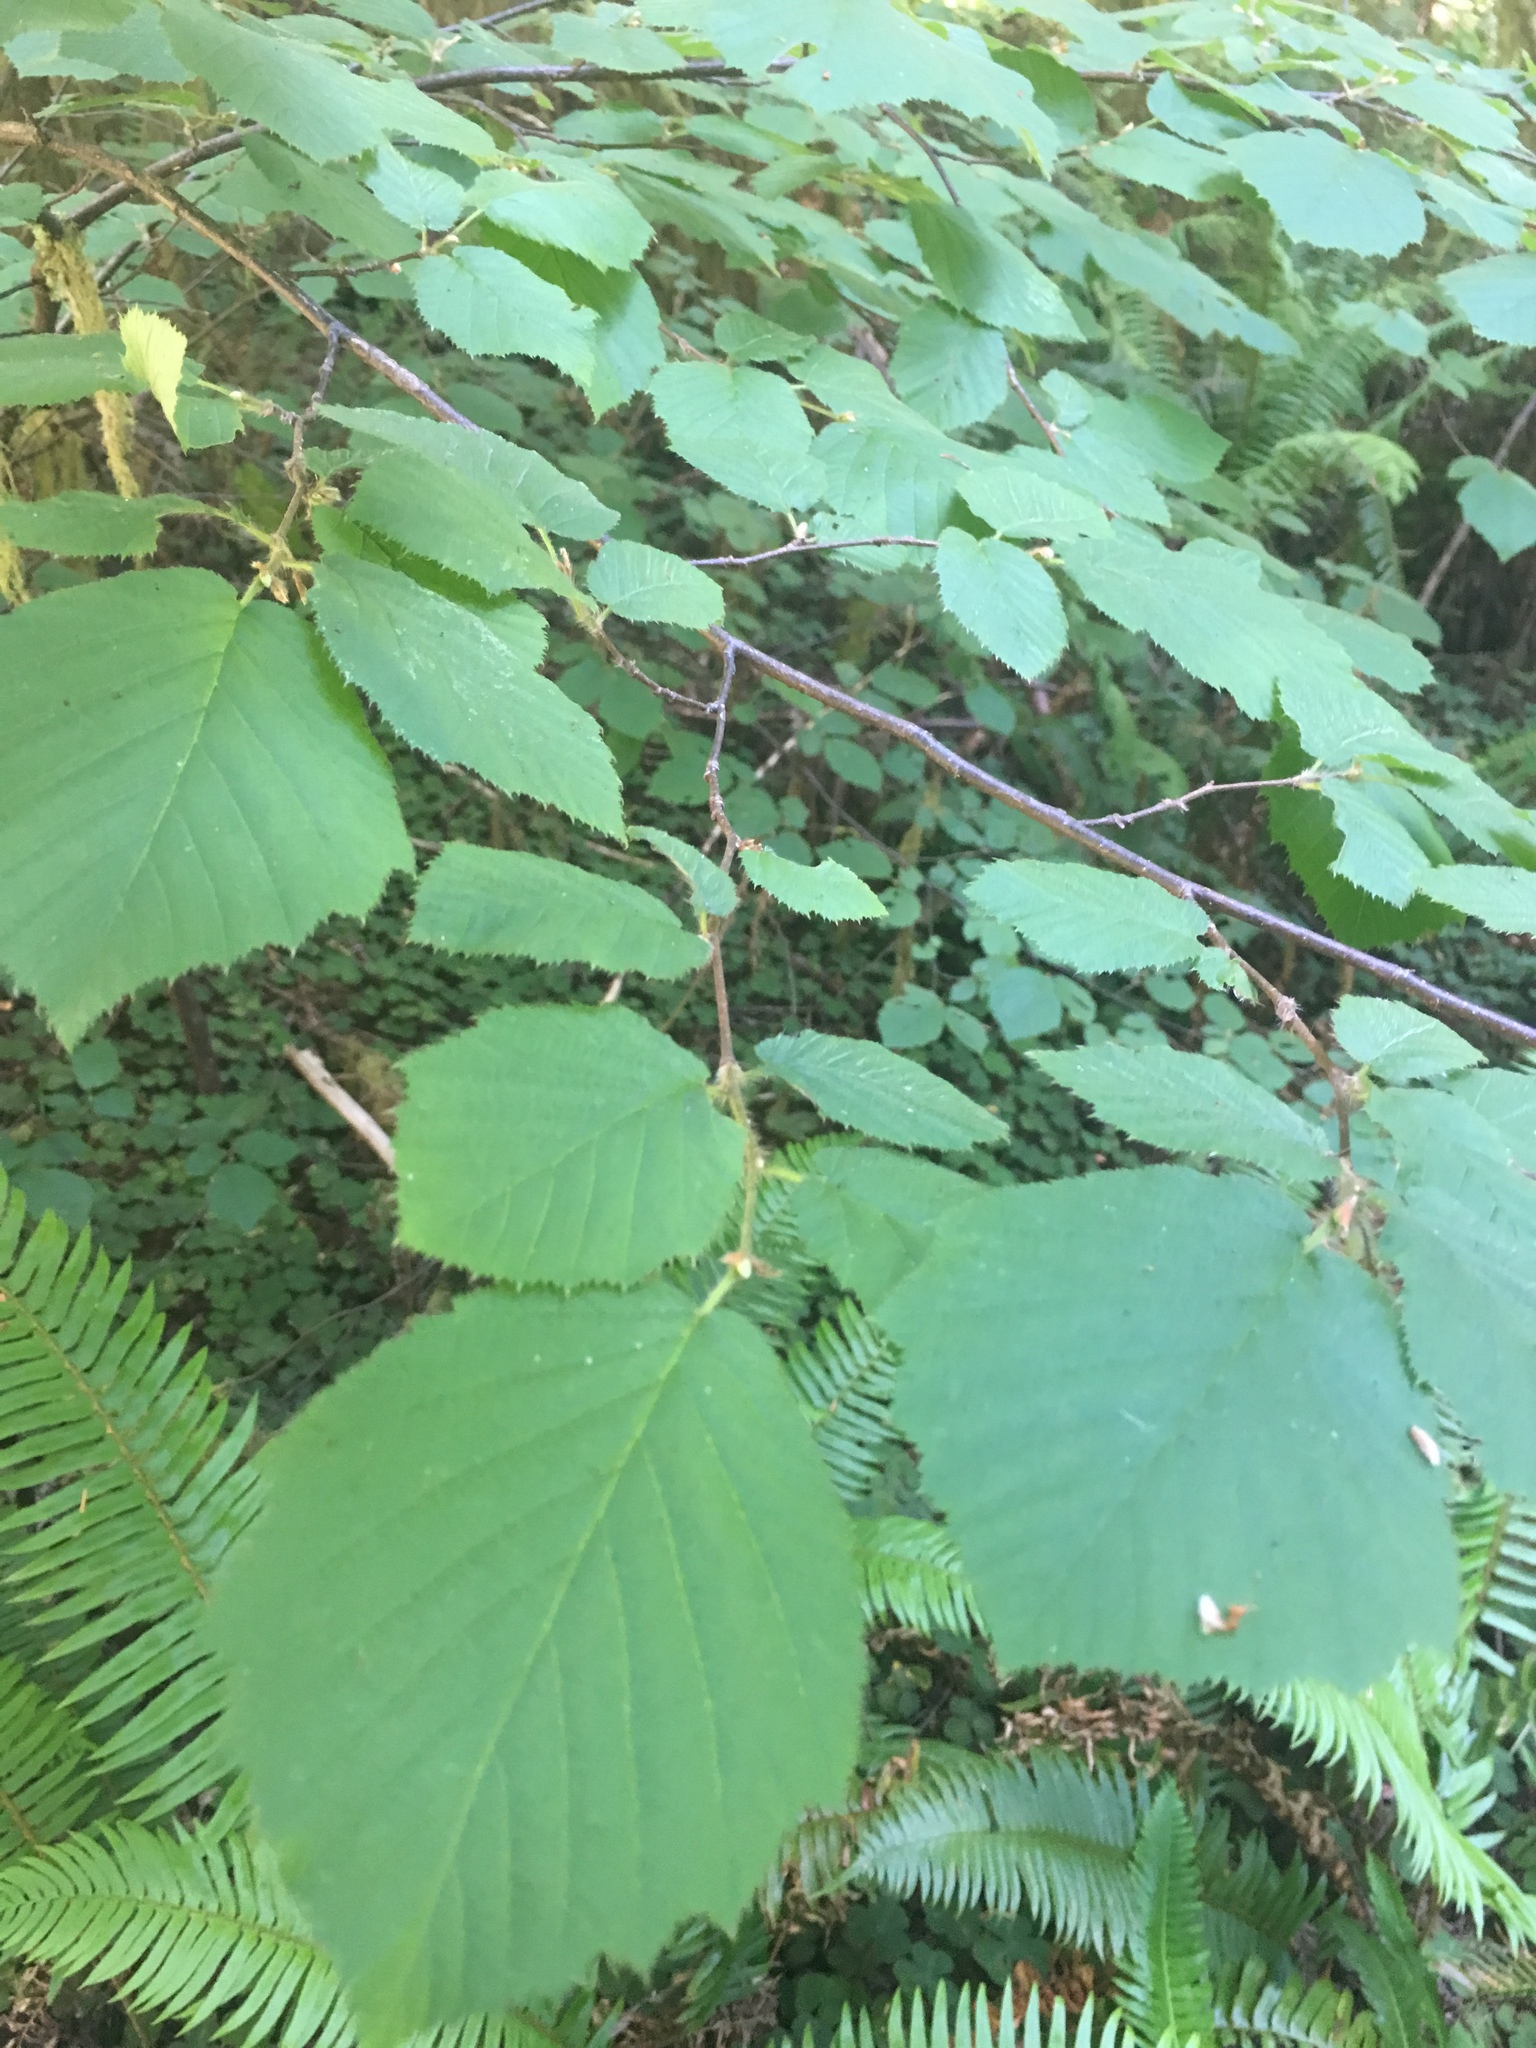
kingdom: Plantae
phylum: Tracheophyta
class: Magnoliopsida
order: Fagales
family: Betulaceae
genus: Corylus
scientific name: Corylus cornuta
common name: Beaked hazel
